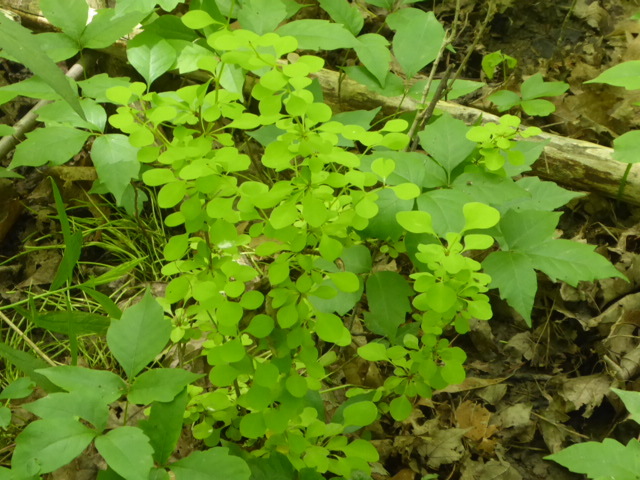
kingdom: Plantae
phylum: Tracheophyta
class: Magnoliopsida
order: Ranunculales
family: Berberidaceae
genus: Berberis
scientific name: Berberis thunbergii
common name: Japanese barberry
